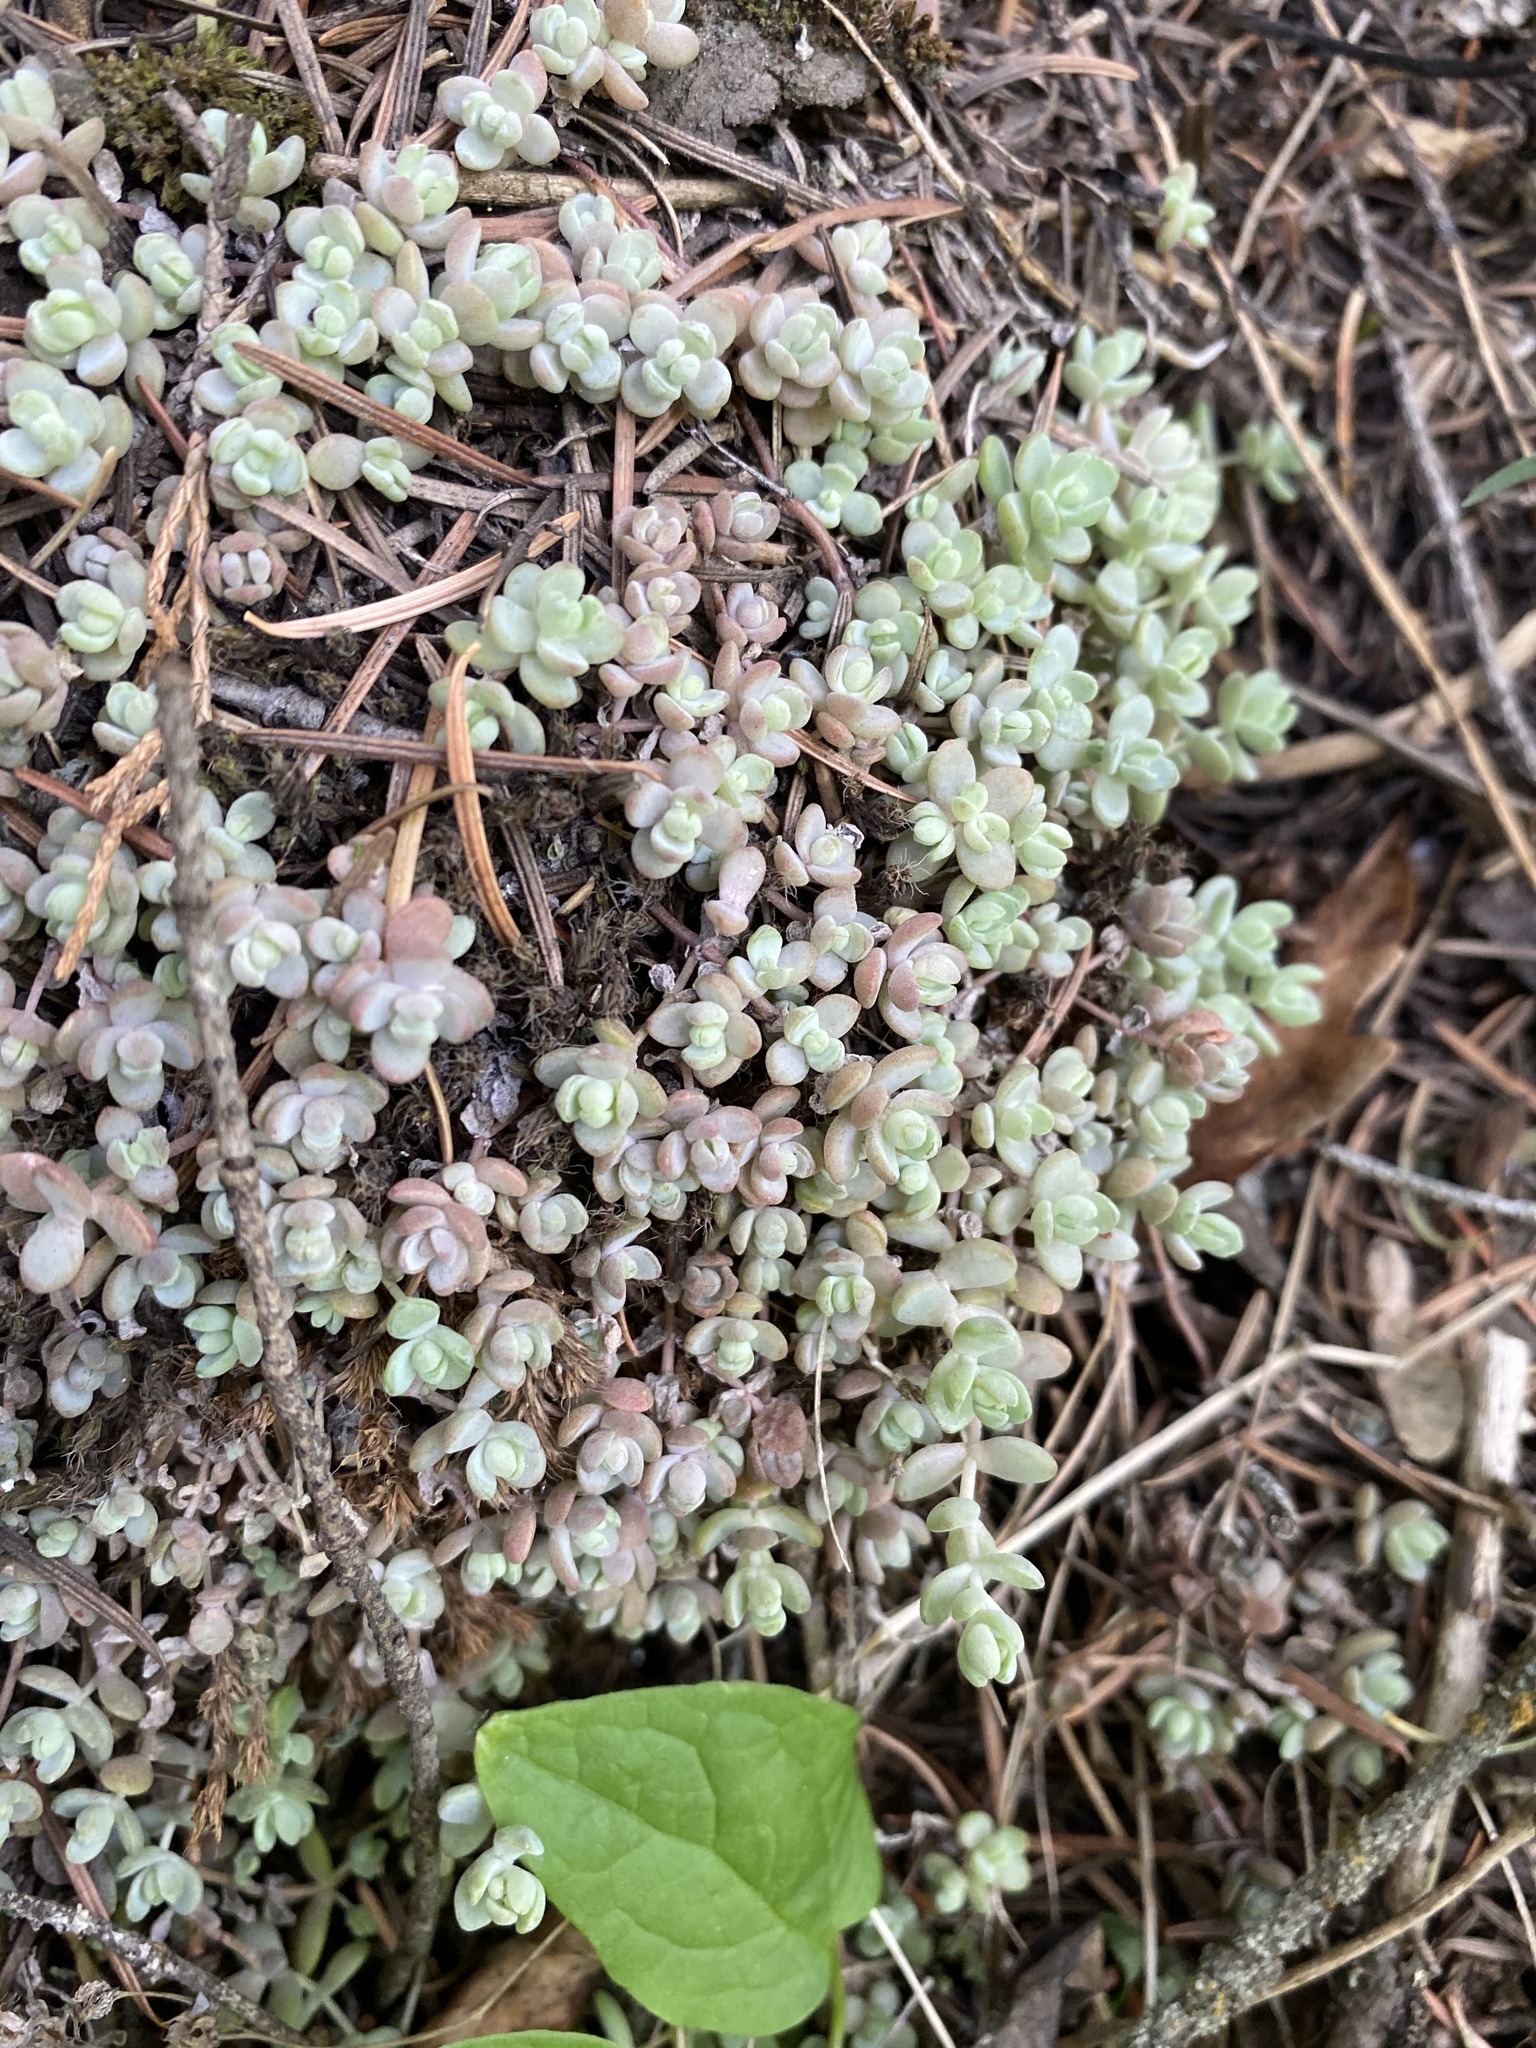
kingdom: Plantae
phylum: Tracheophyta
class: Magnoliopsida
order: Saxifragales
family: Crassulaceae
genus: Sedum
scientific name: Sedum debile
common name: Weak-stem stonecrop
